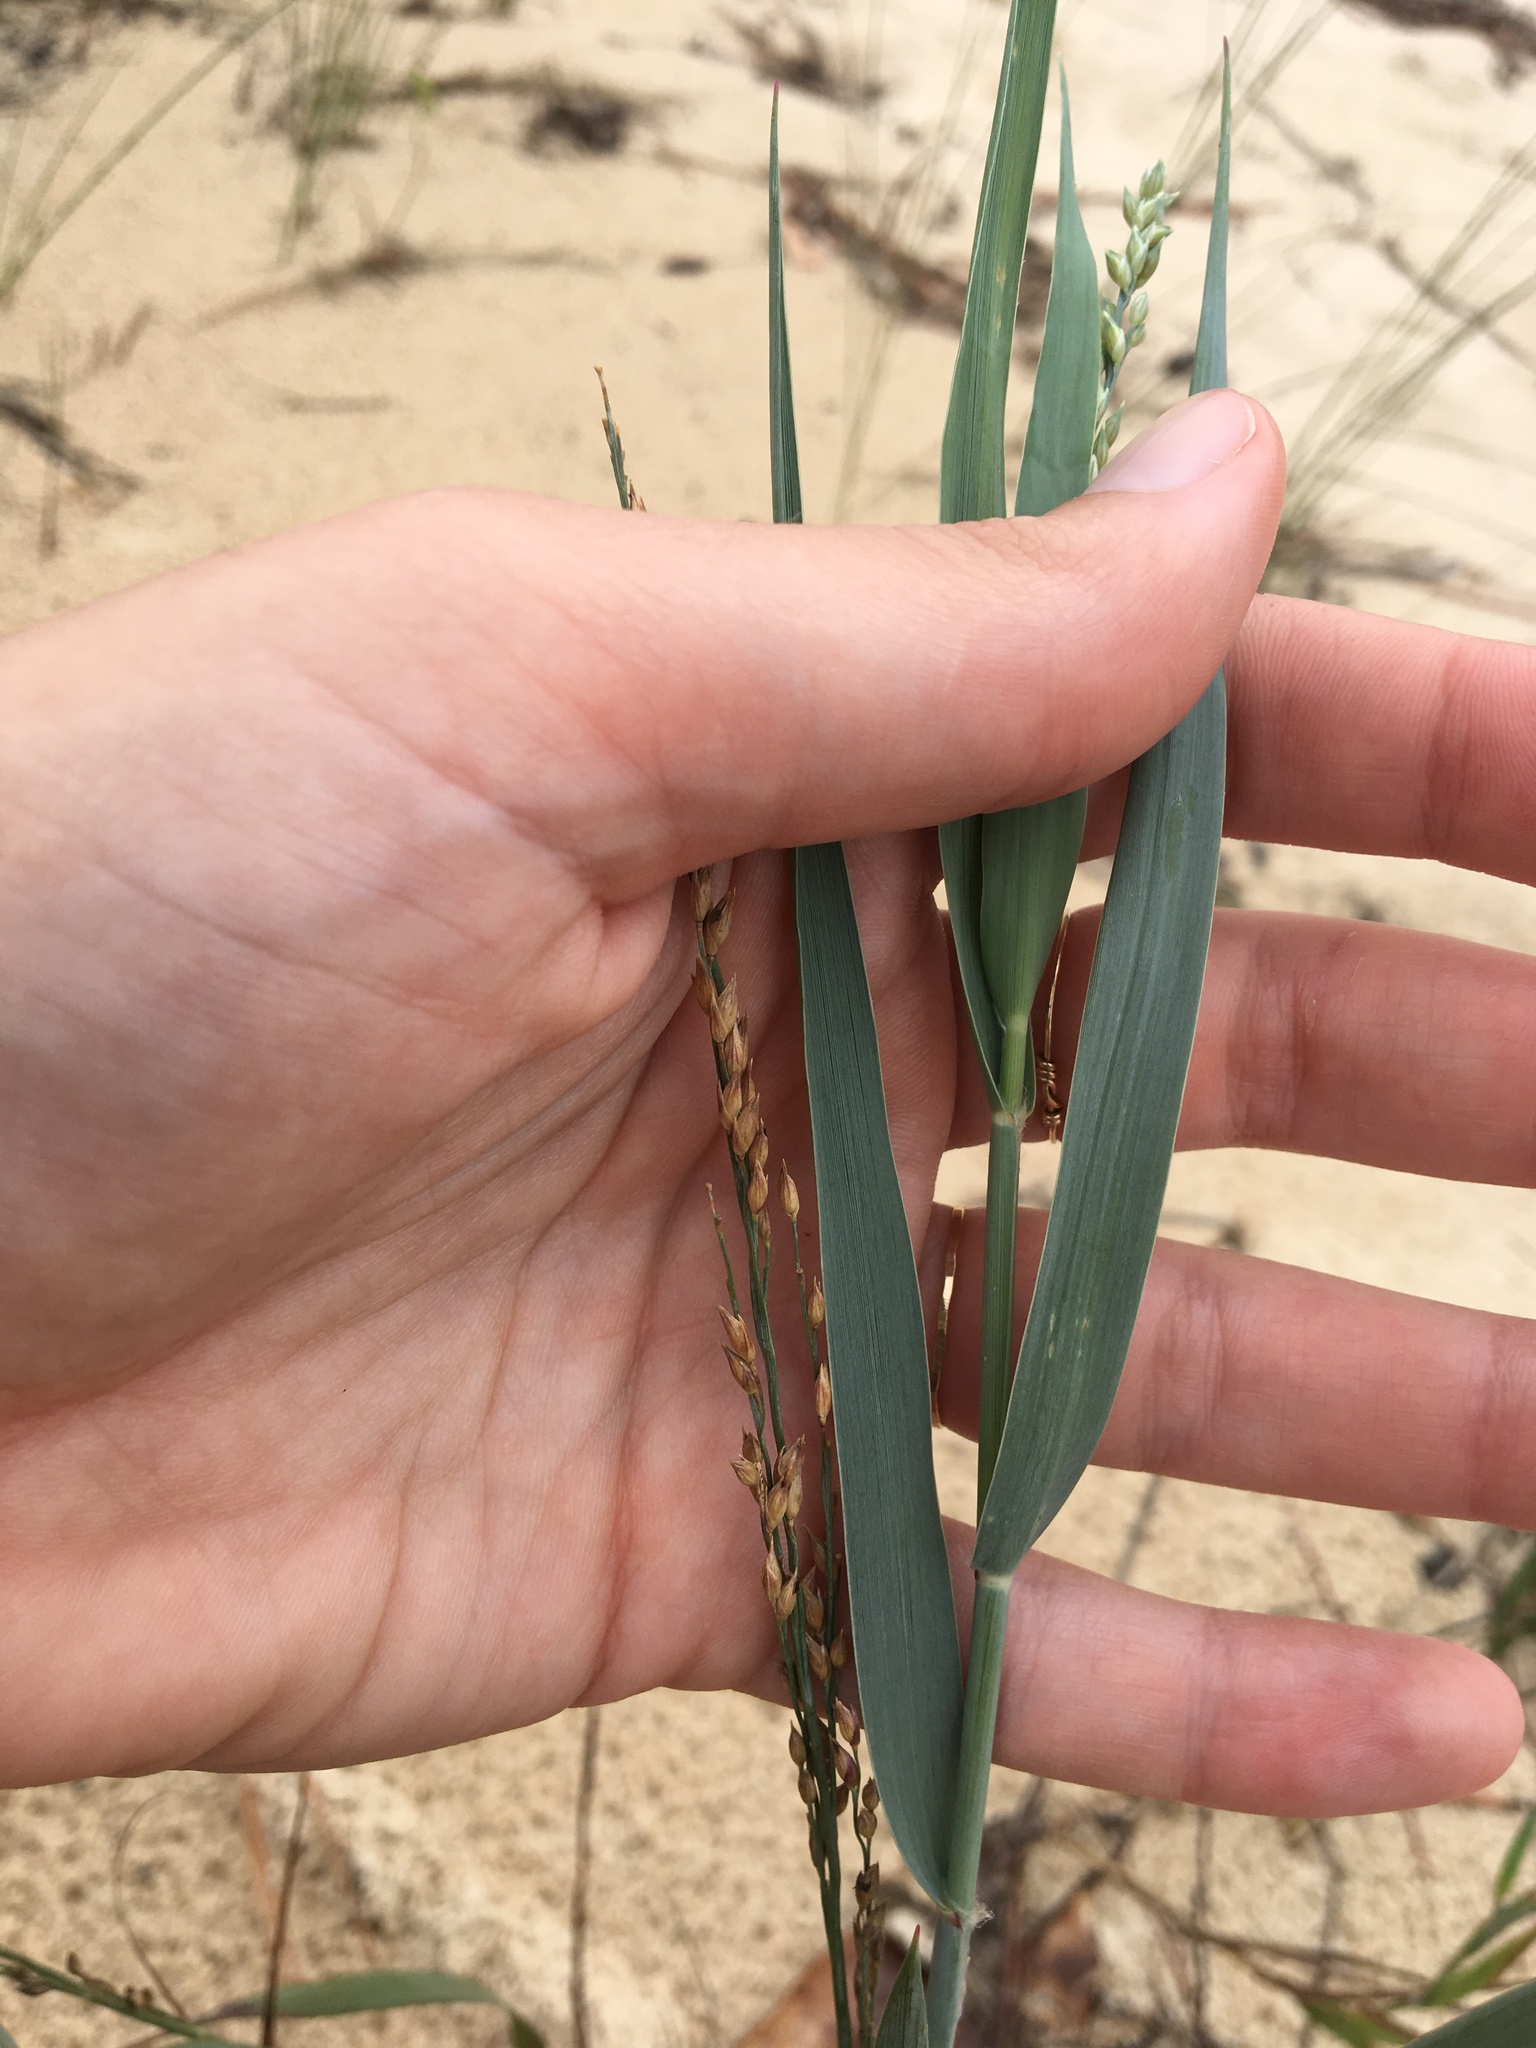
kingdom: Plantae
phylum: Tracheophyta
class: Liliopsida
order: Poales
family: Poaceae
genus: Panicum
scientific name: Panicum amarum
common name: Bitter panicum
